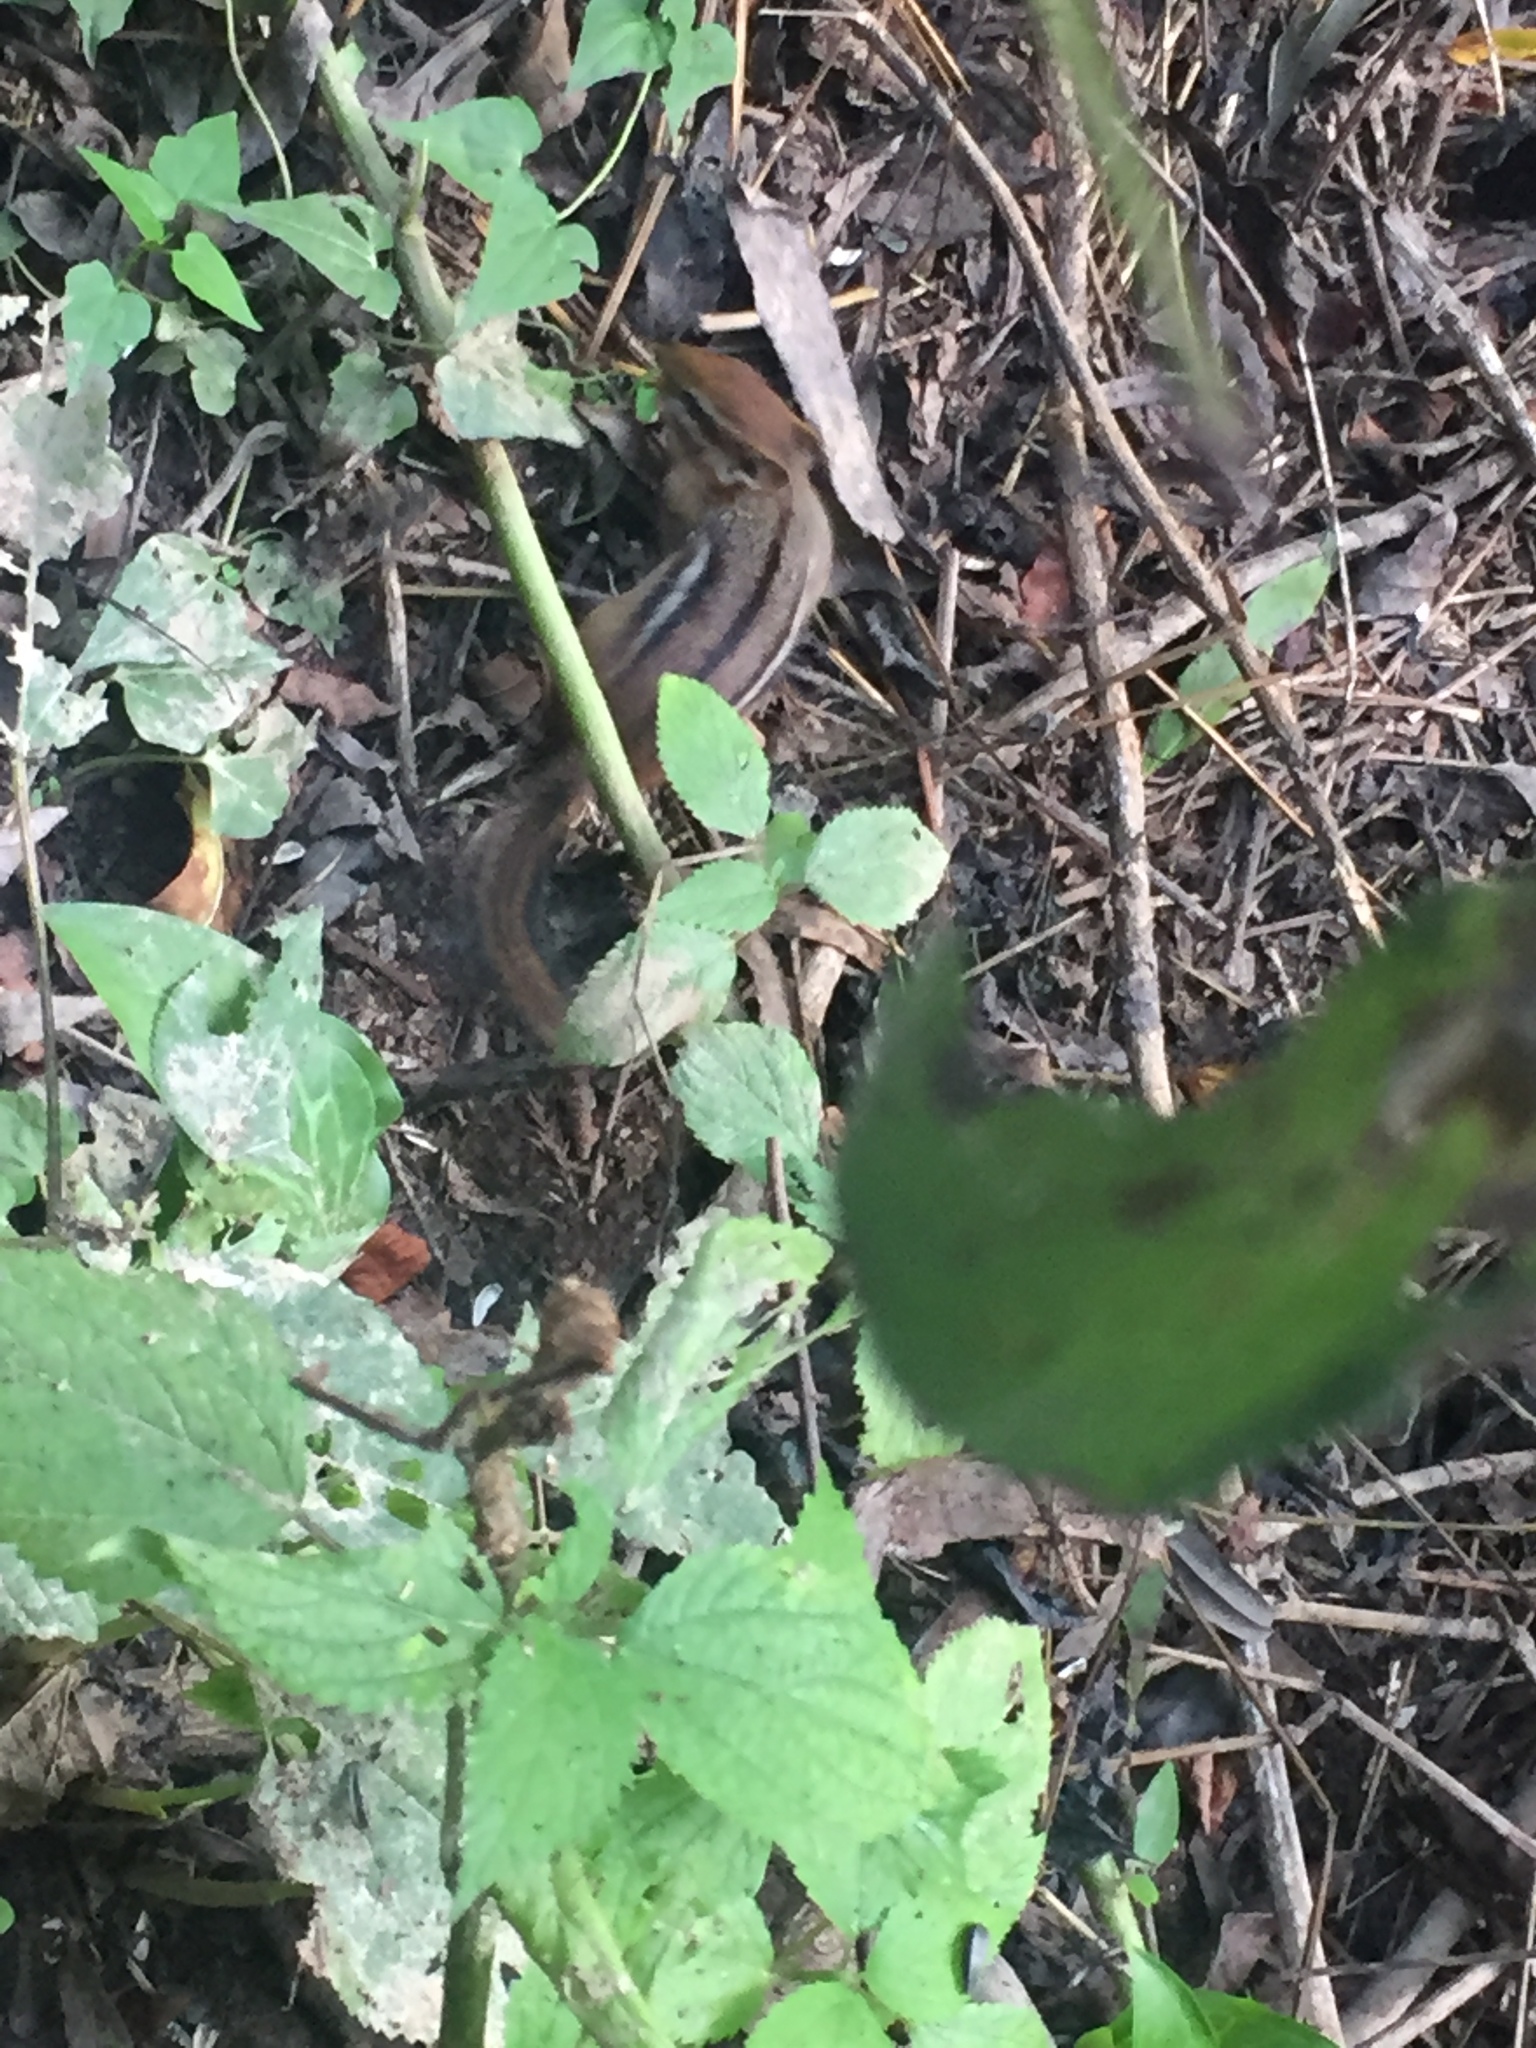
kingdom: Animalia
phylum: Chordata
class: Mammalia
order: Rodentia
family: Sciuridae
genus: Tamias
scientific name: Tamias striatus
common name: Eastern chipmunk
